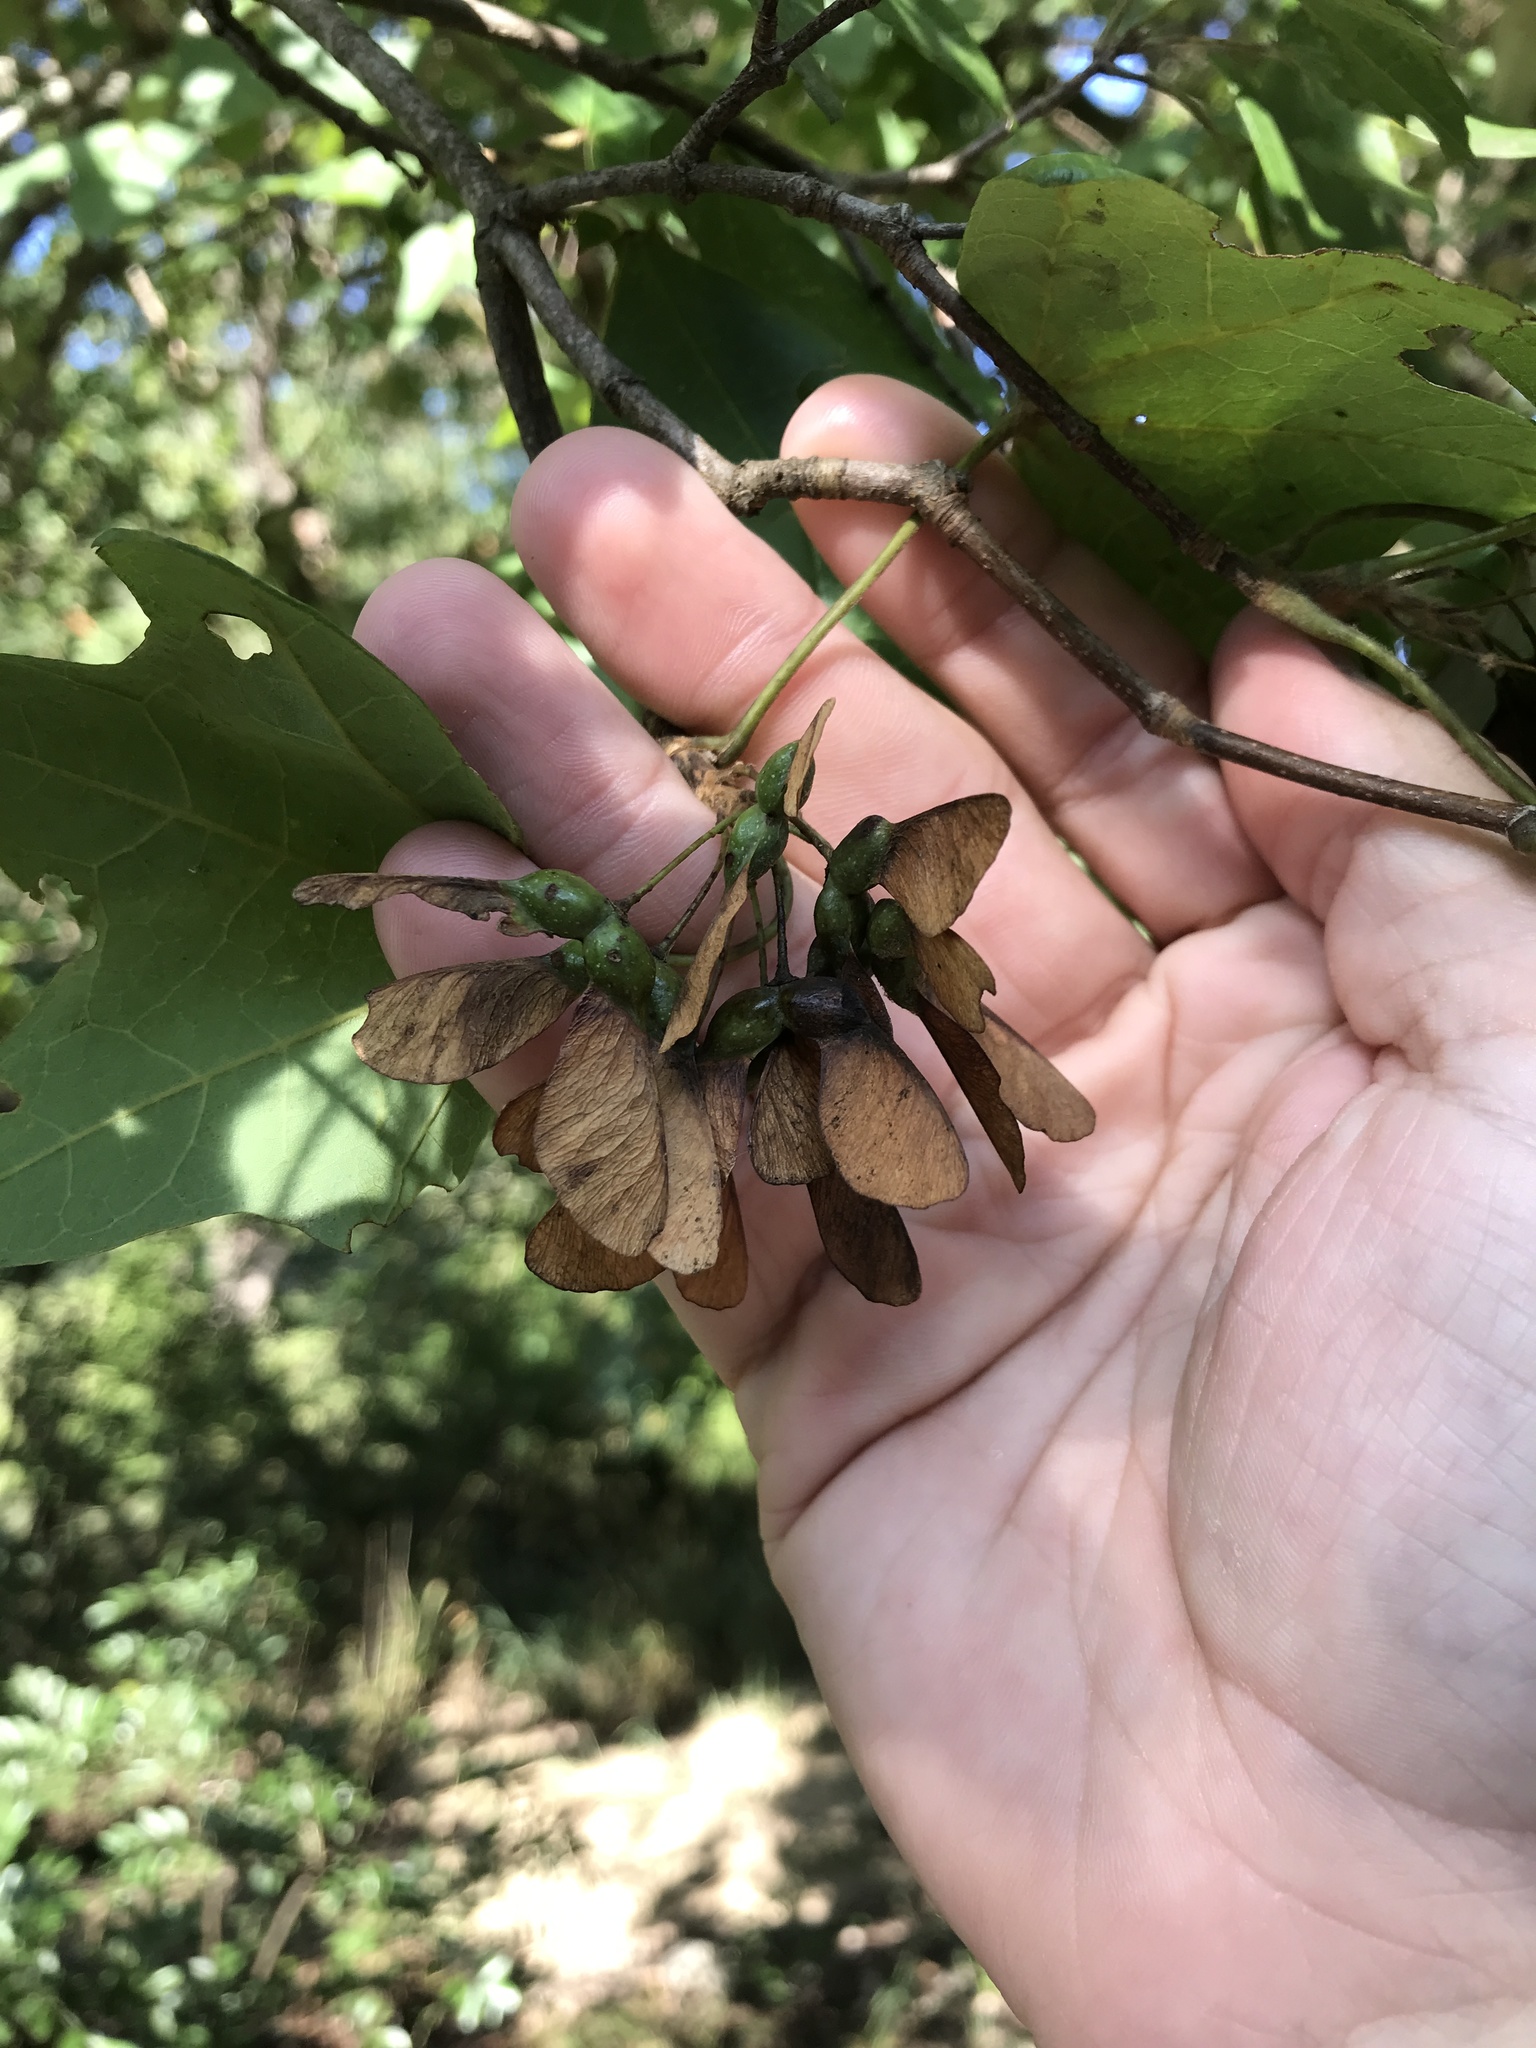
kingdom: Plantae
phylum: Tracheophyta
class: Magnoliopsida
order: Sapindales
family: Sapindaceae
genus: Acer
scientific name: Acer grandidentatum
